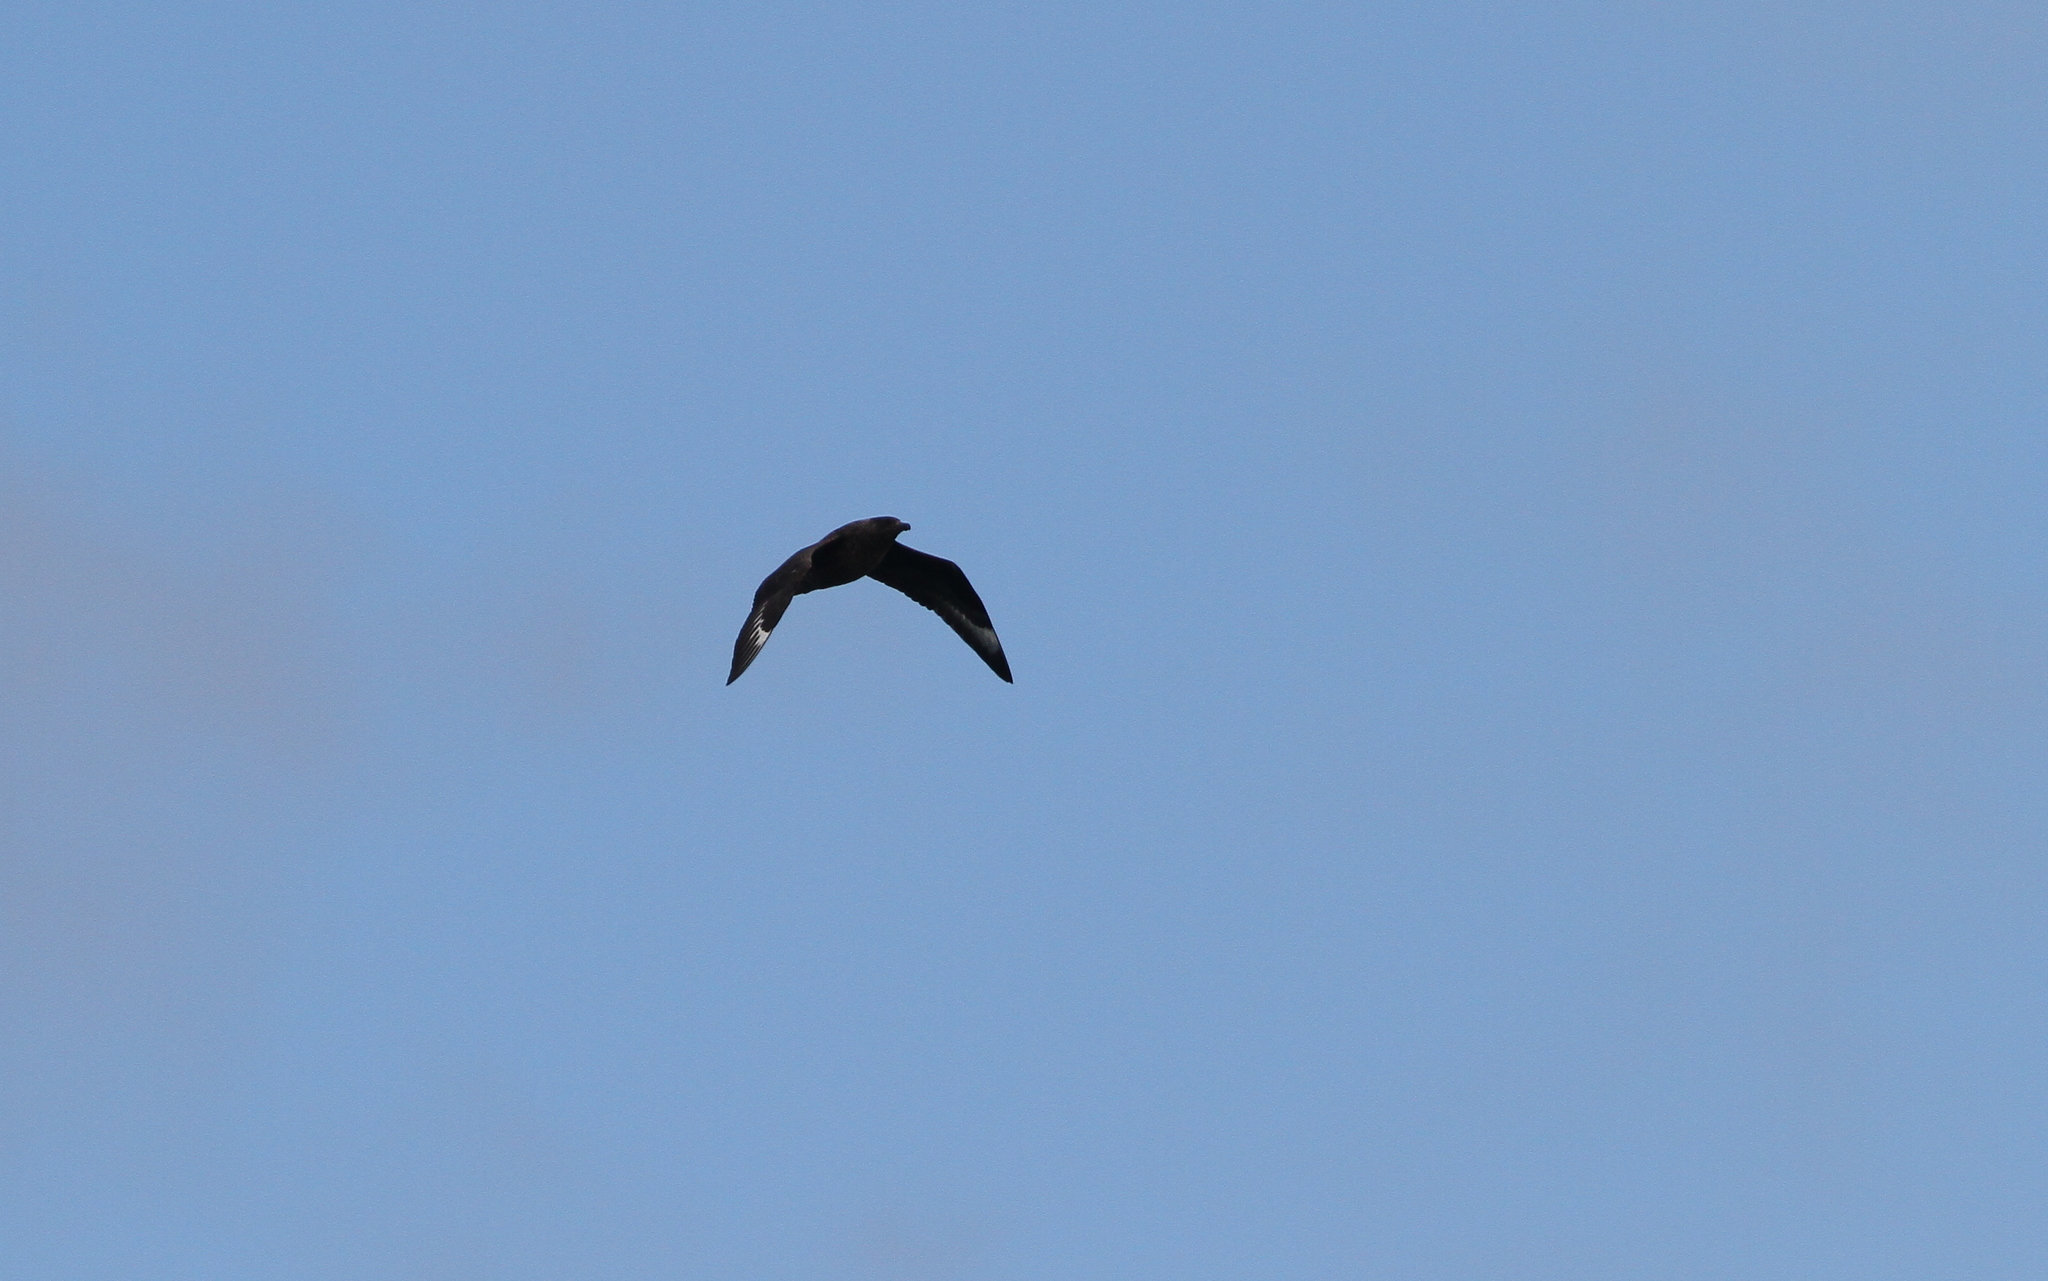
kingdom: Animalia
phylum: Chordata
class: Aves
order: Charadriiformes
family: Stercorariidae
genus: Stercorarius
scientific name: Stercorarius skua
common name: Great skua
